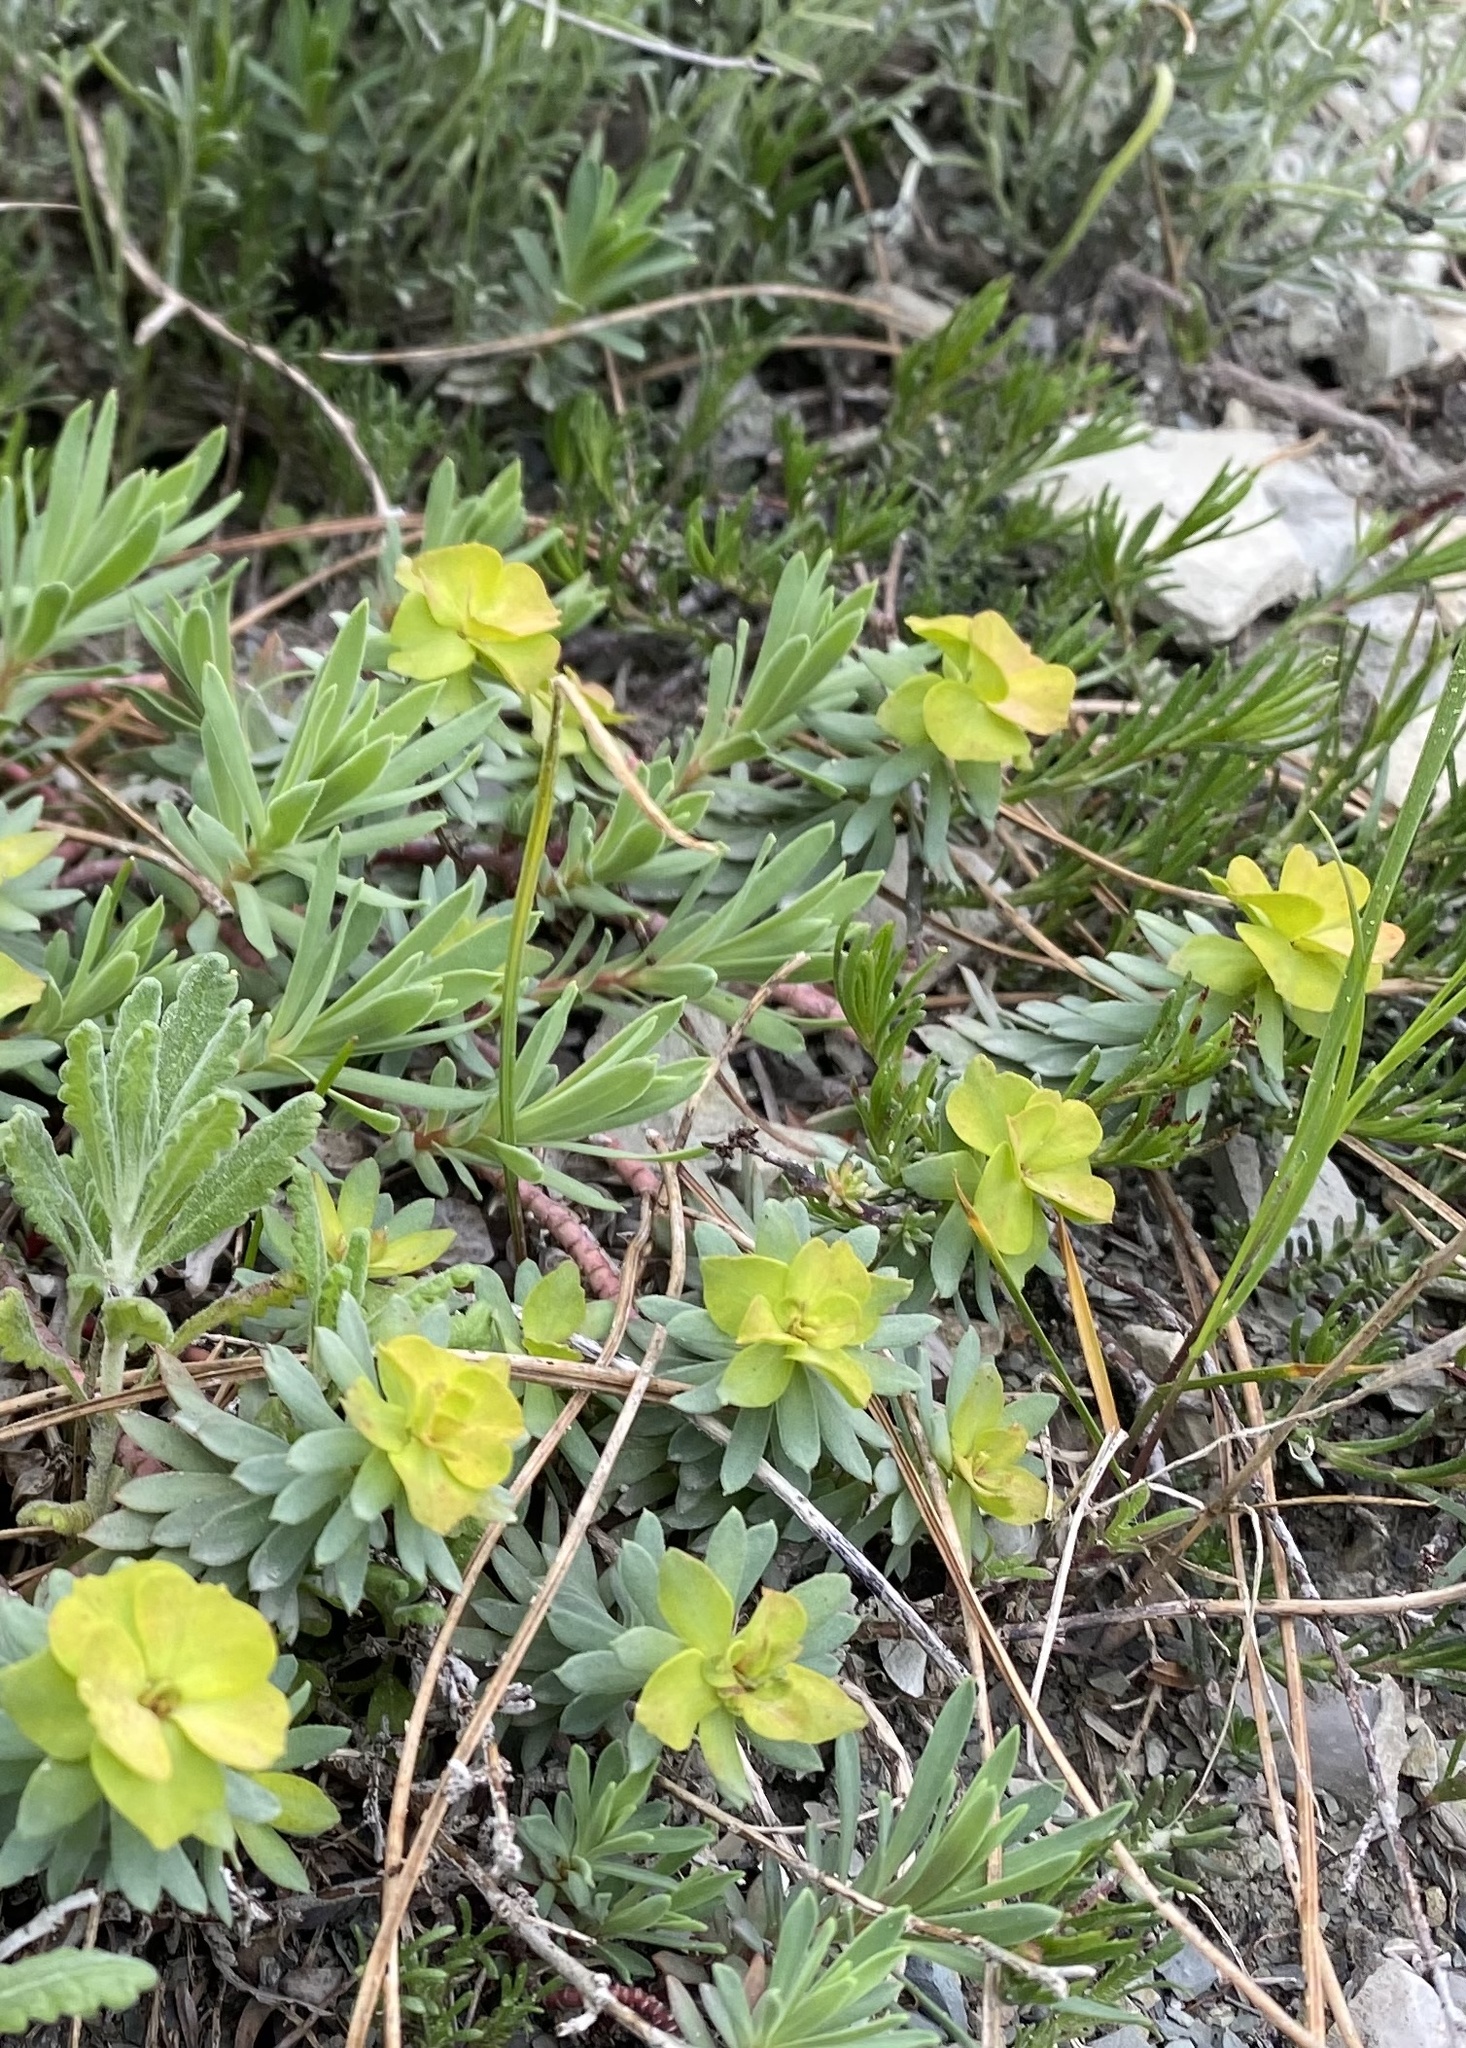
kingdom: Plantae
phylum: Tracheophyta
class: Magnoliopsida
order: Malpighiales
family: Euphorbiaceae
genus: Euphorbia
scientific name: Euphorbia petrophila
